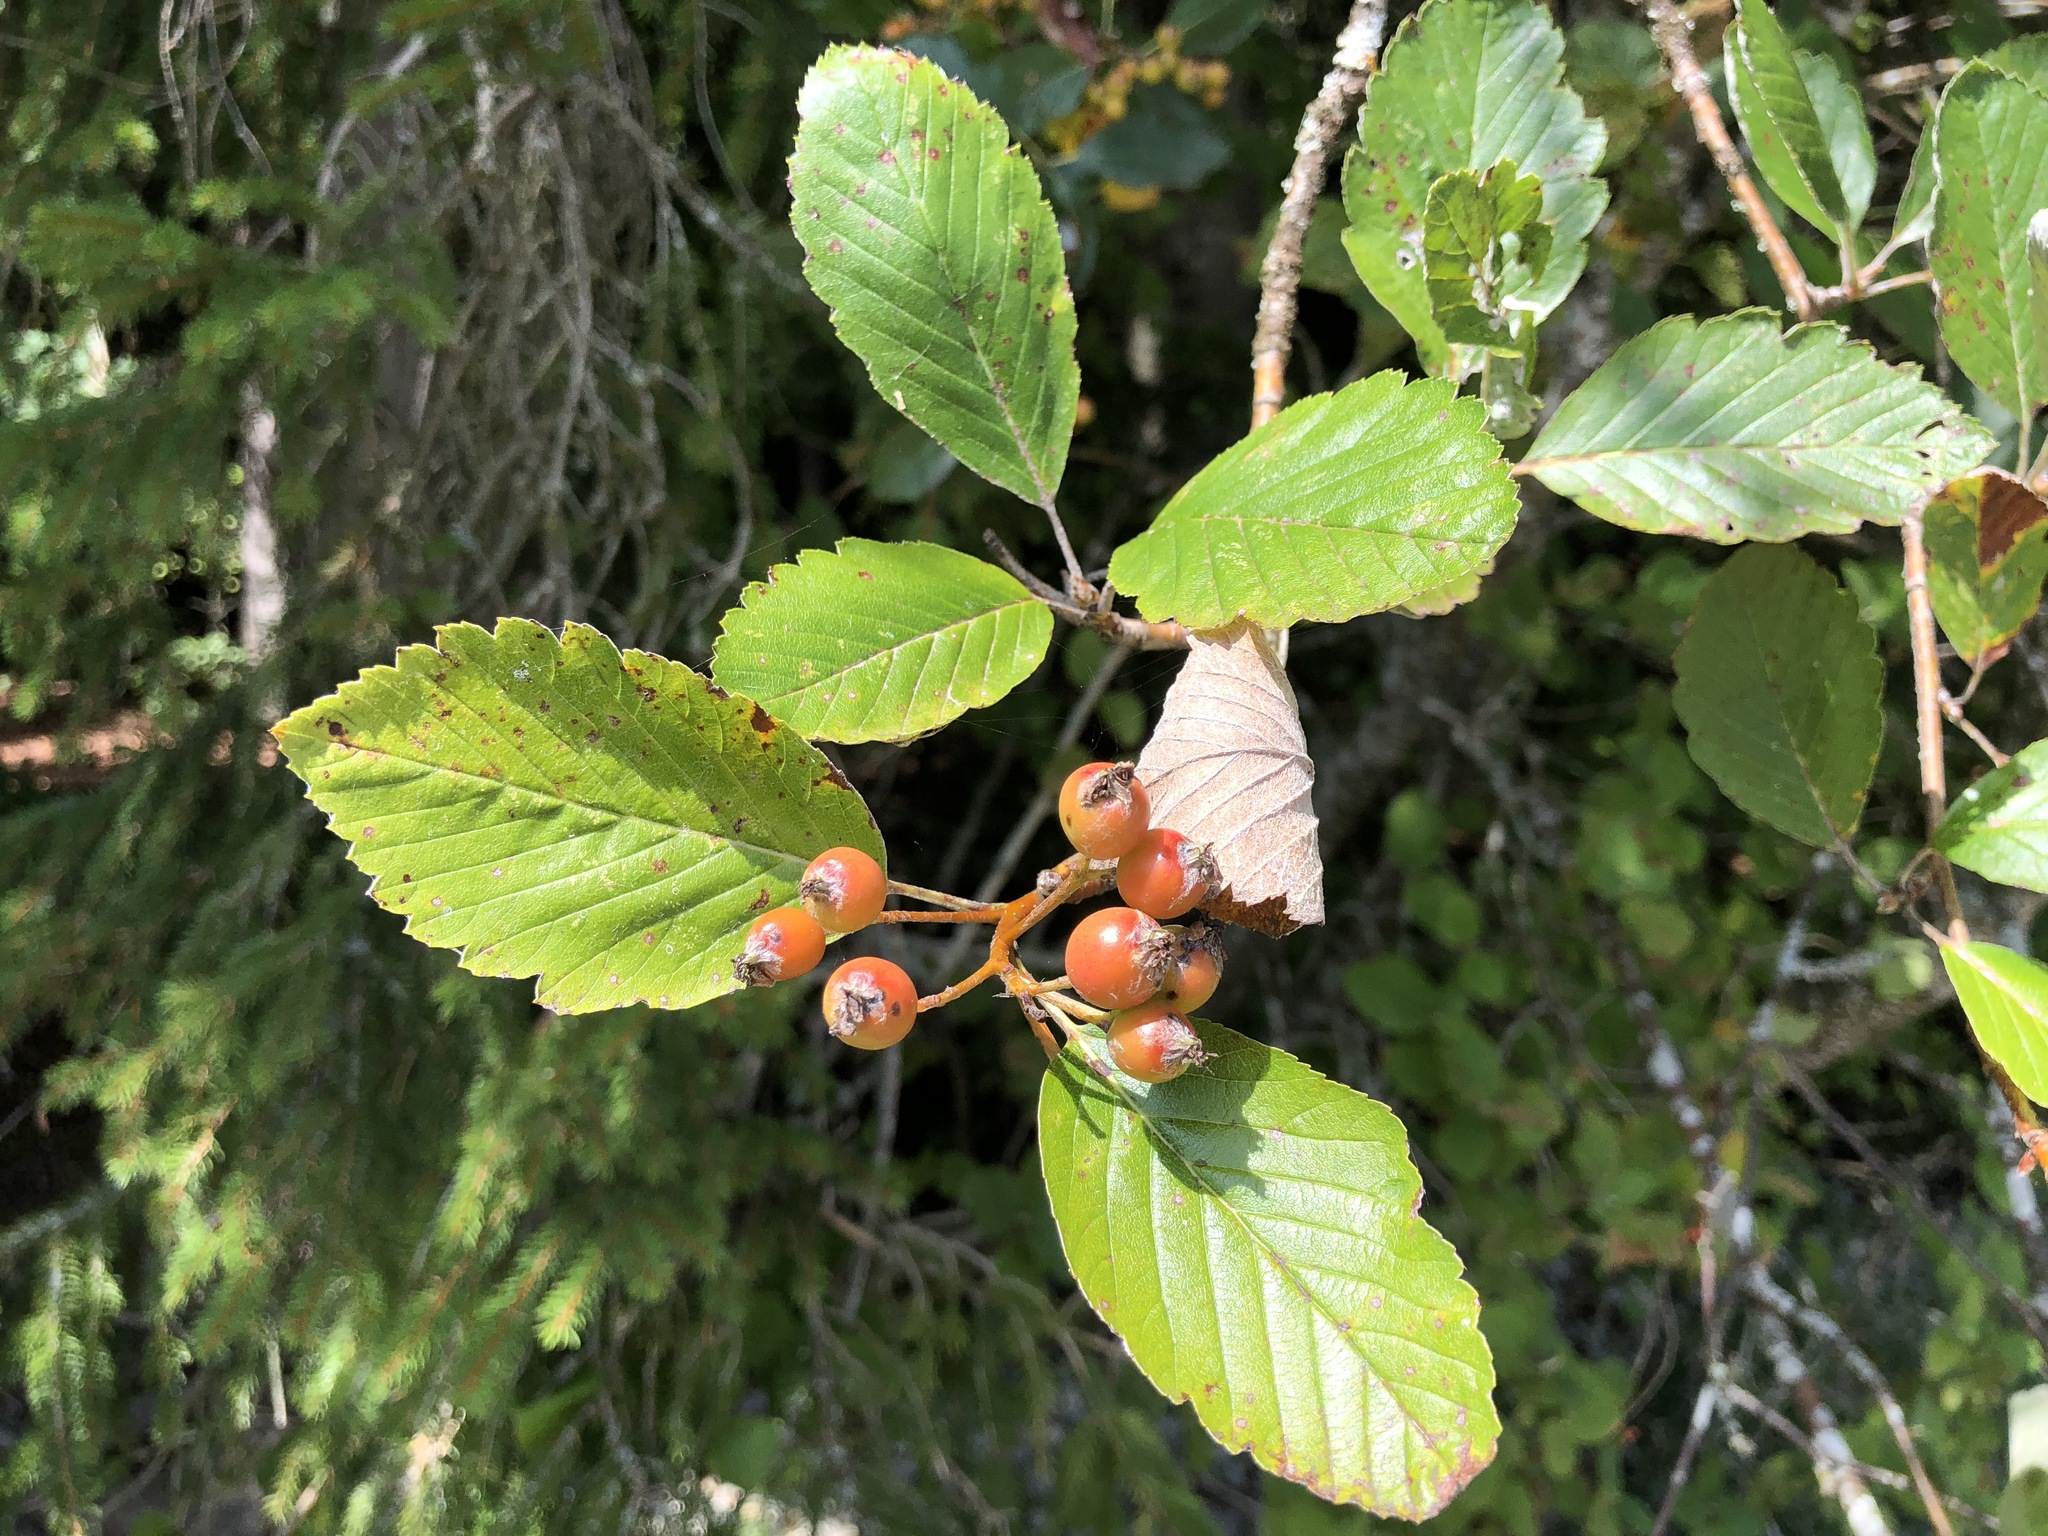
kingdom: Plantae
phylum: Tracheophyta
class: Magnoliopsida
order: Rosales
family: Rosaceae
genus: Aria
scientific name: Aria edulis
